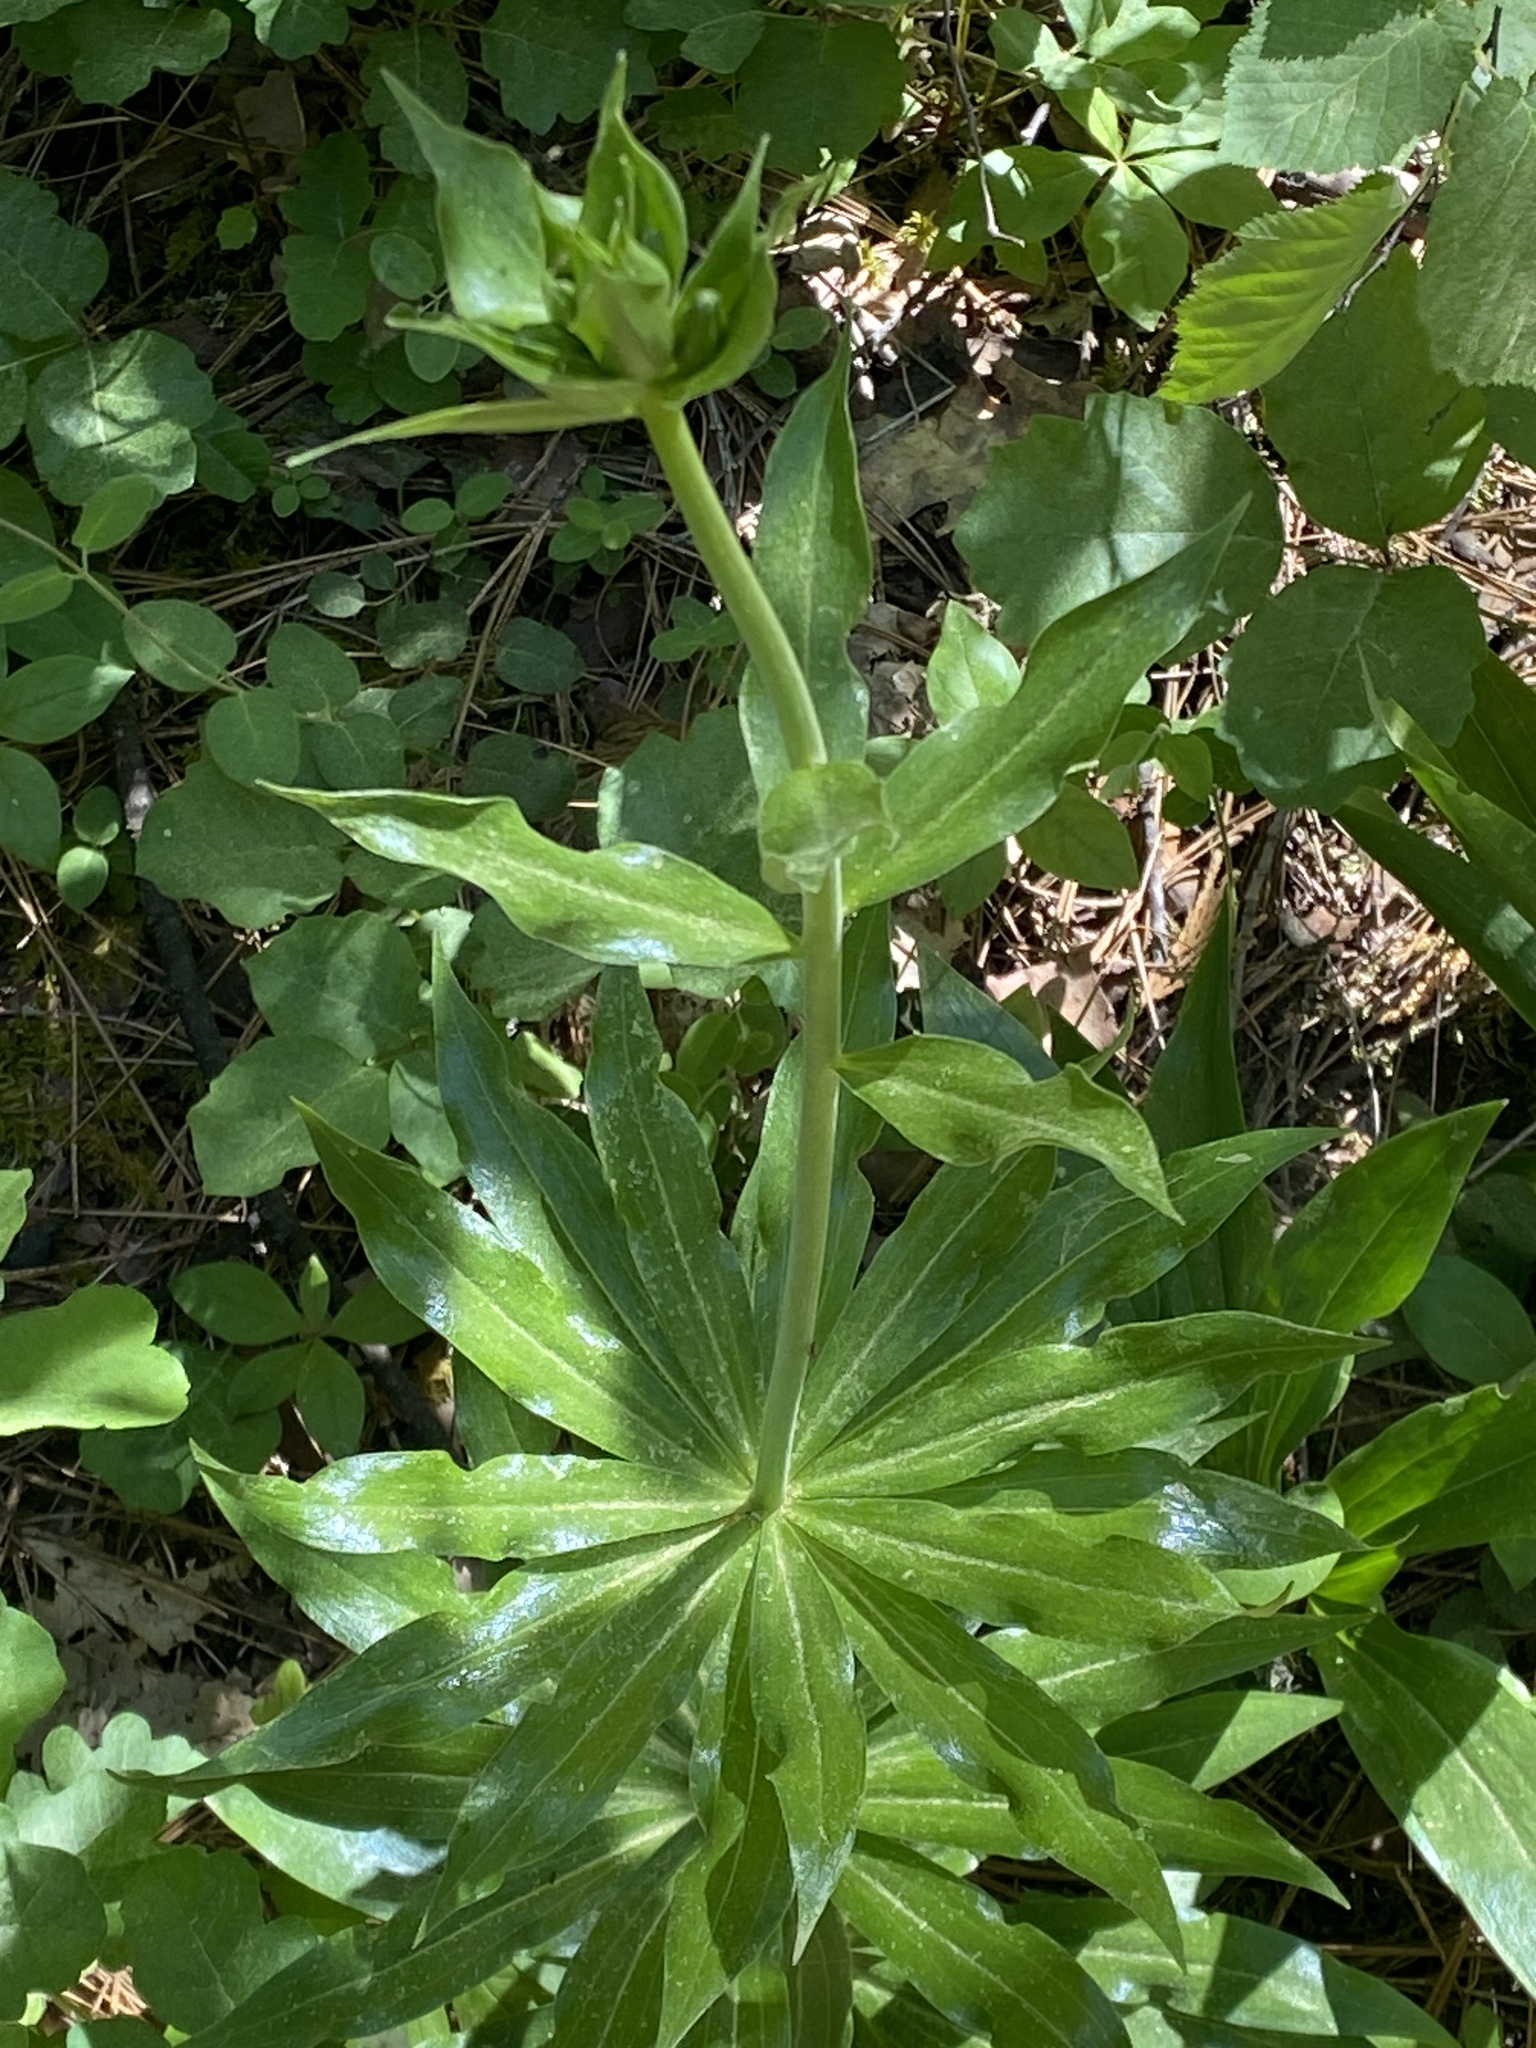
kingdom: Plantae
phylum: Tracheophyta
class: Liliopsida
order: Liliales
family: Liliaceae
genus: Lilium
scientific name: Lilium humboldtii
